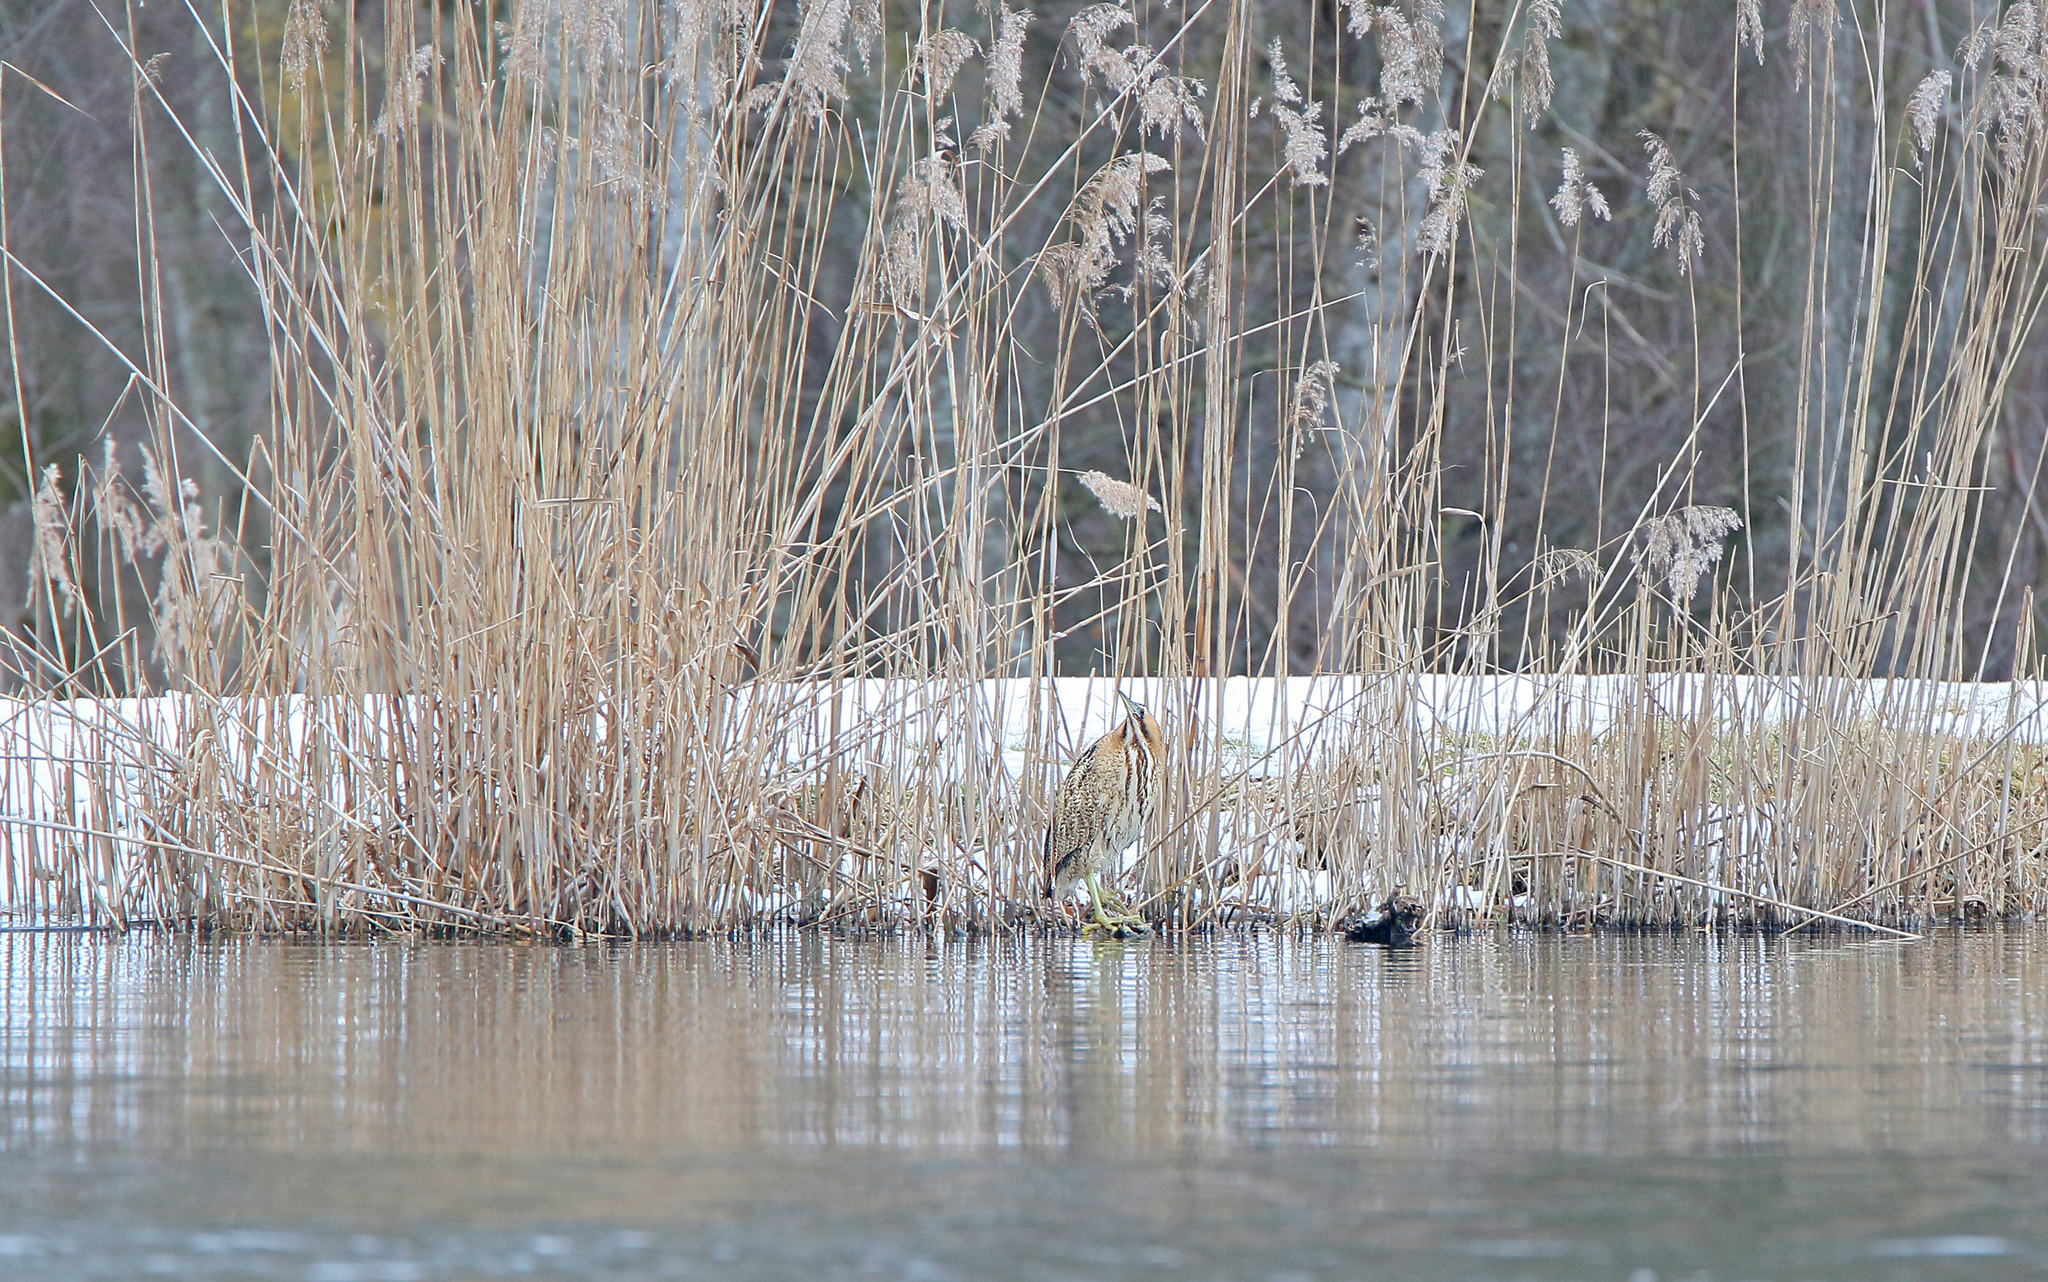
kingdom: Animalia
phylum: Chordata
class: Aves
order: Pelecaniformes
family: Ardeidae
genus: Botaurus
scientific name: Botaurus stellaris
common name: Eurasian bittern
